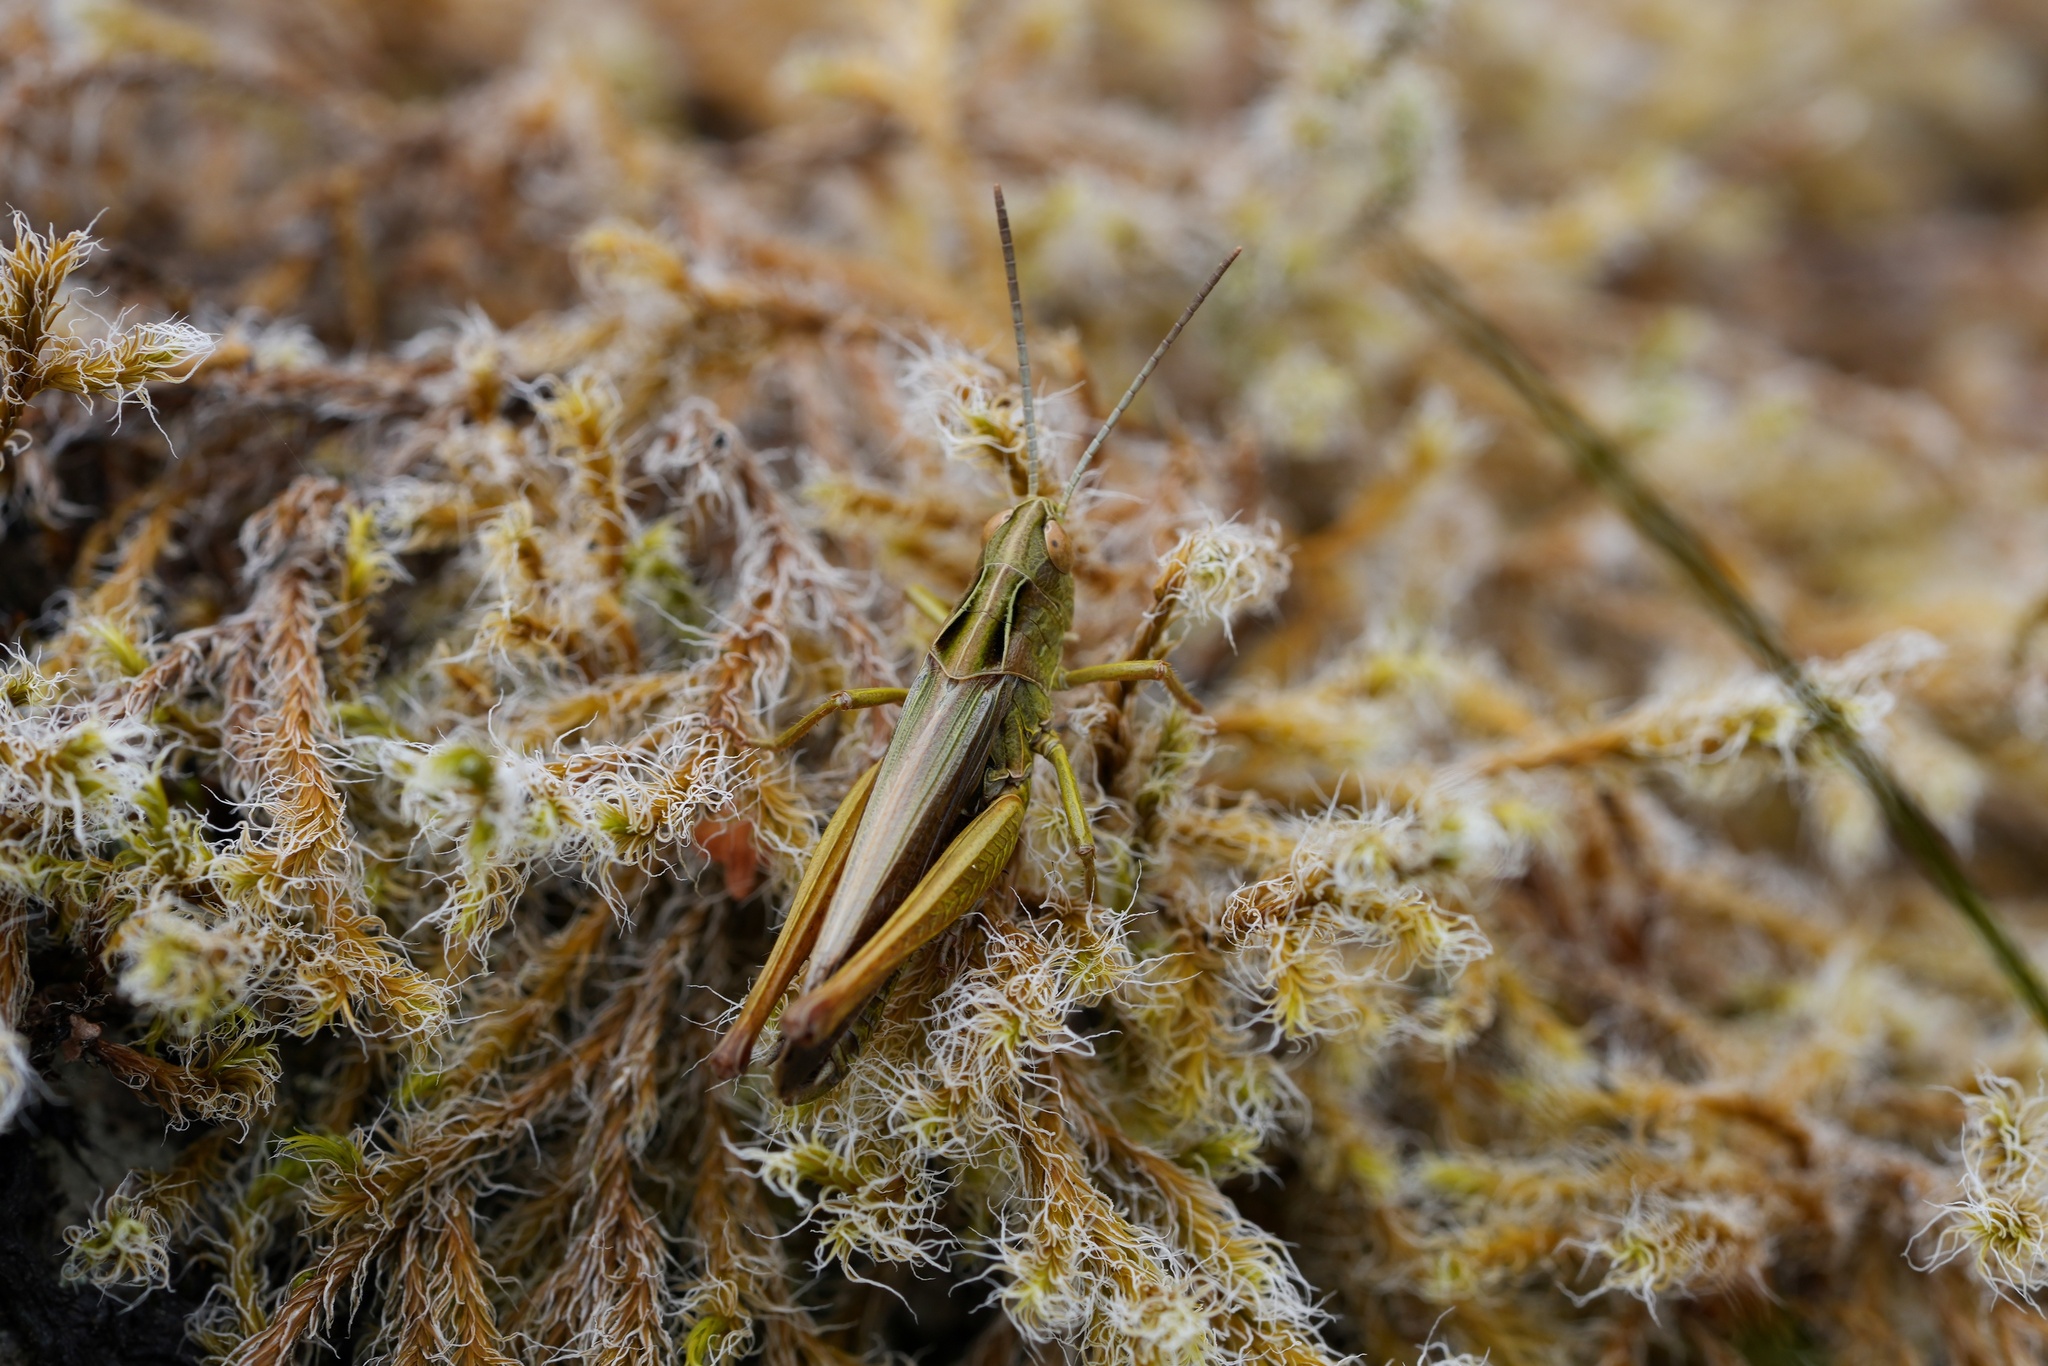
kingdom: Animalia
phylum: Arthropoda
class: Insecta
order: Orthoptera
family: Acrididae
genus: Omocestus
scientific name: Omocestus viridulus
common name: Common green grasshopper
